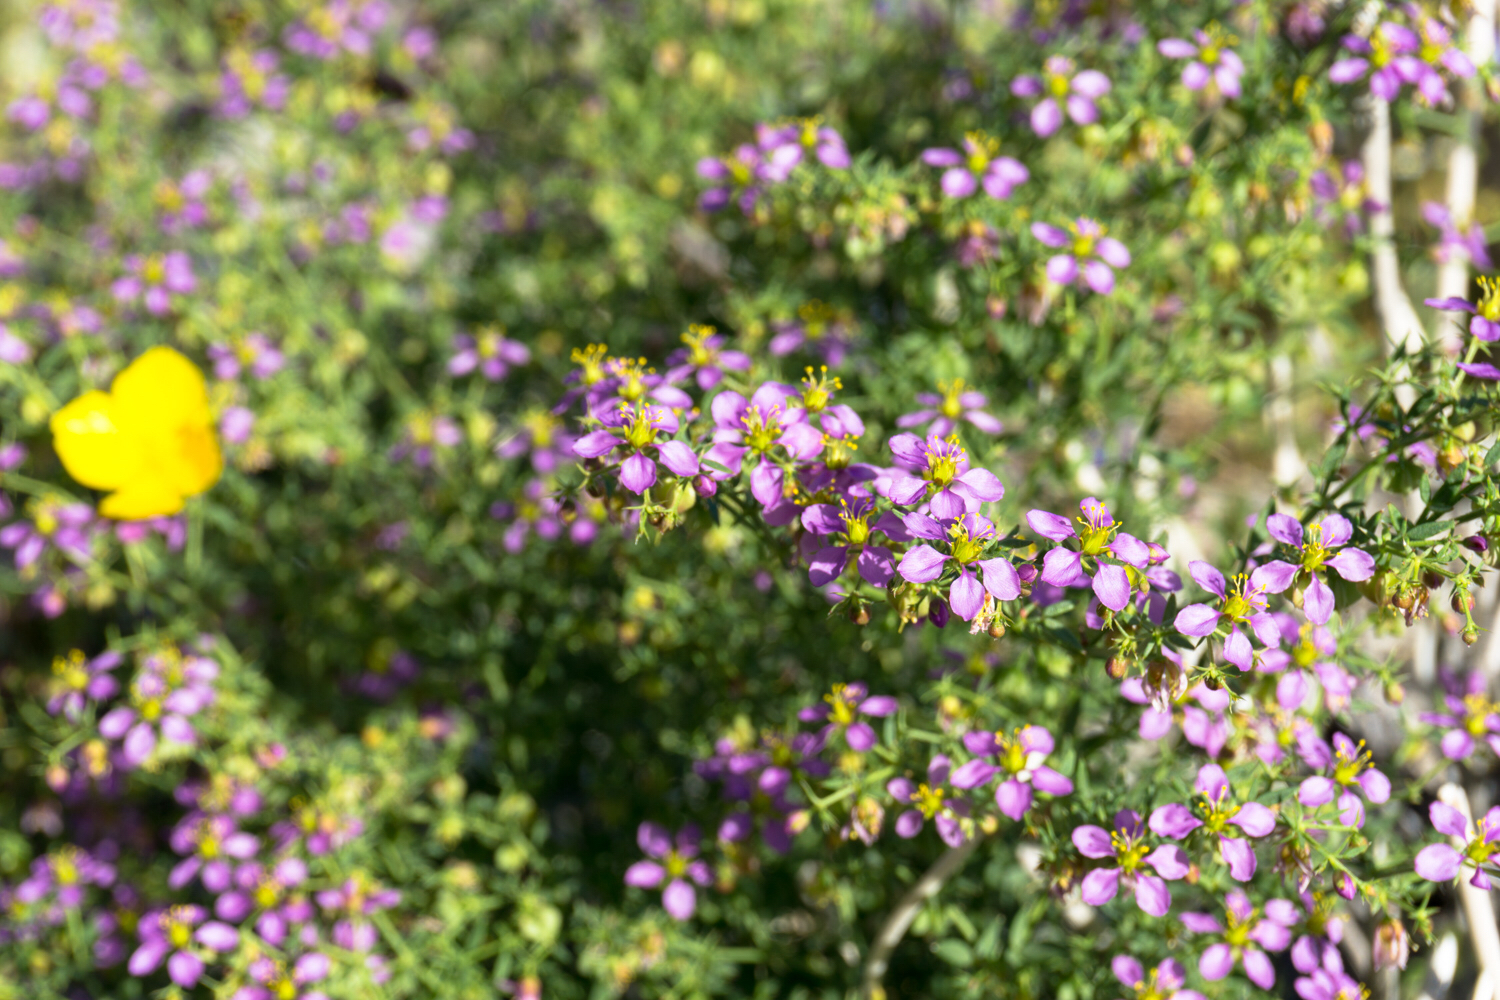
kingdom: Plantae
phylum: Tracheophyta
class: Magnoliopsida
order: Zygophyllales
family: Zygophyllaceae
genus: Fagonia
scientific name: Fagonia laevis
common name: California fagonbush
